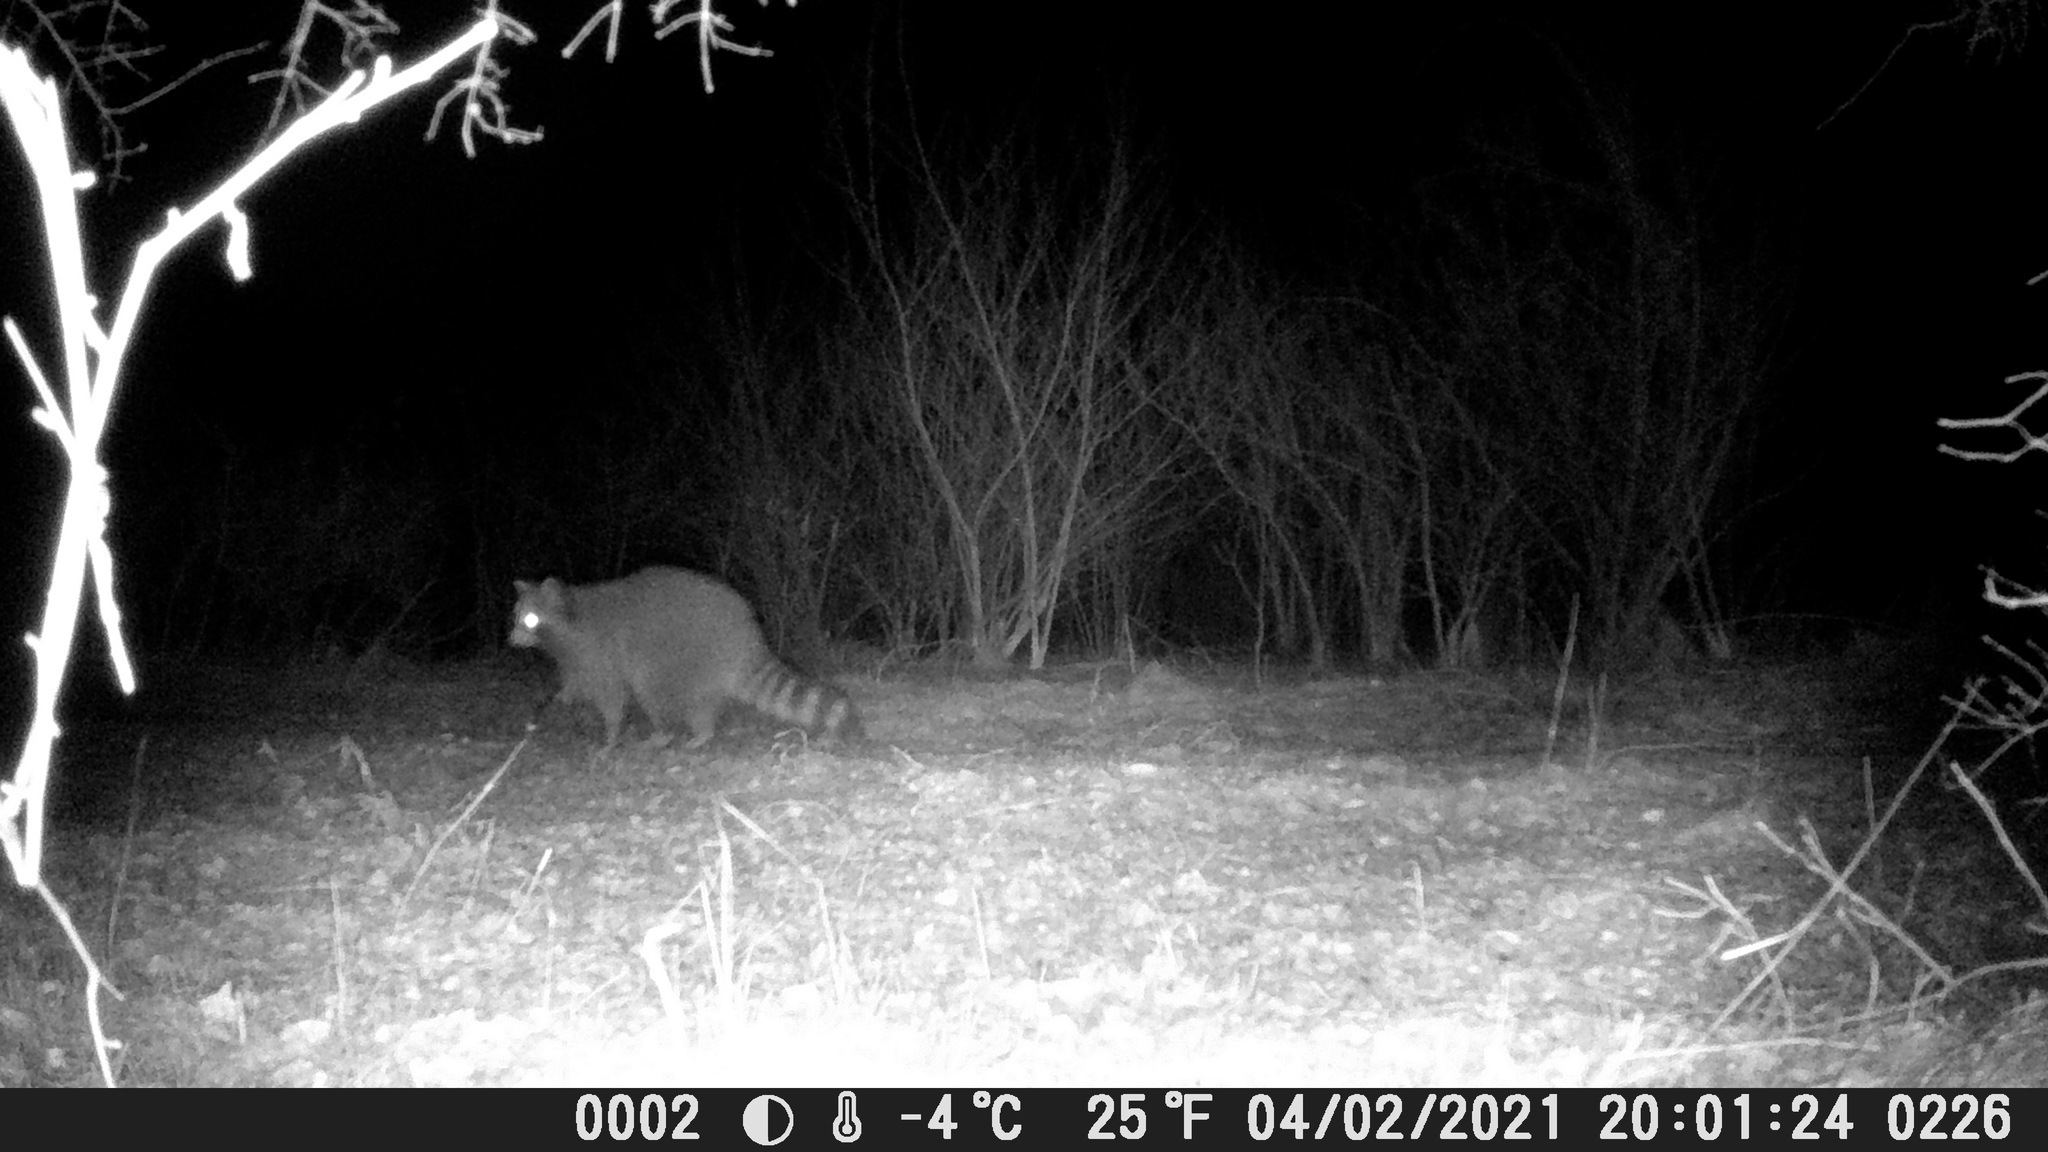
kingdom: Animalia
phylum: Chordata
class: Mammalia
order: Carnivora
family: Procyonidae
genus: Procyon
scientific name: Procyon lotor
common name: Raccoon
